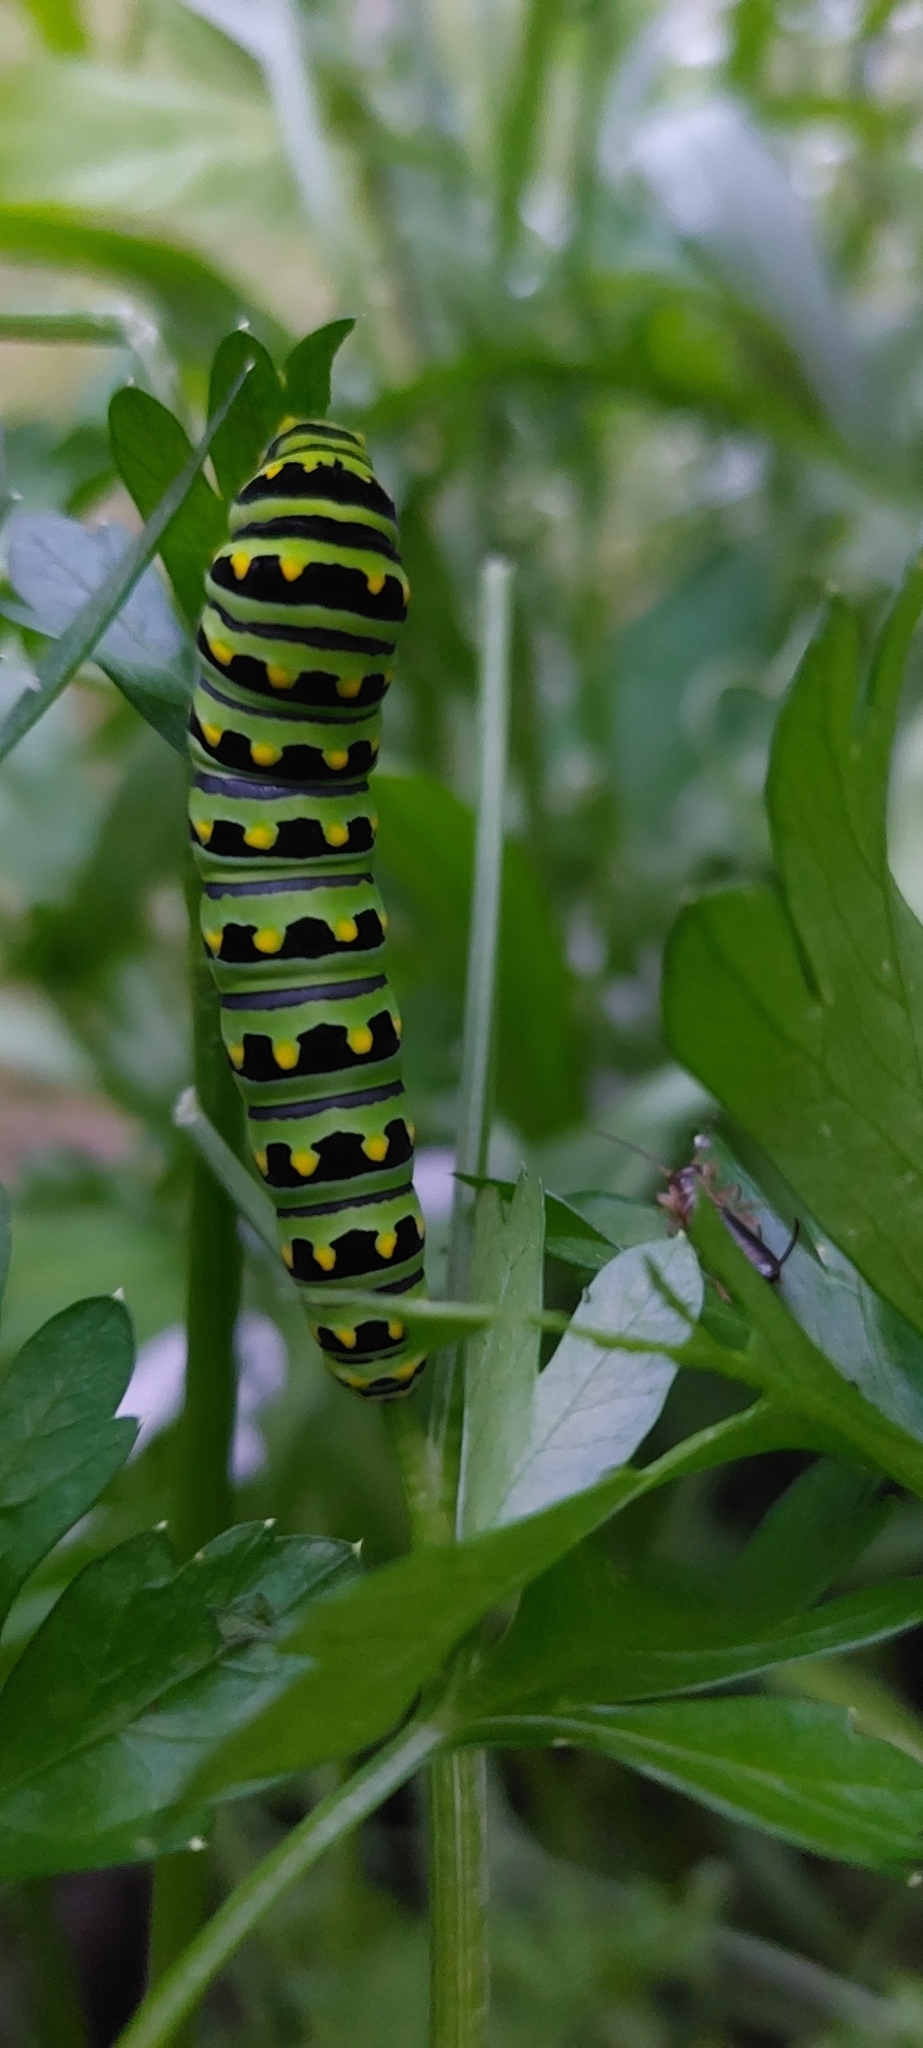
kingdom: Animalia
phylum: Arthropoda
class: Insecta
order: Lepidoptera
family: Papilionidae
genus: Papilio
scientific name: Papilio polyxenes
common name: Black swallowtail
